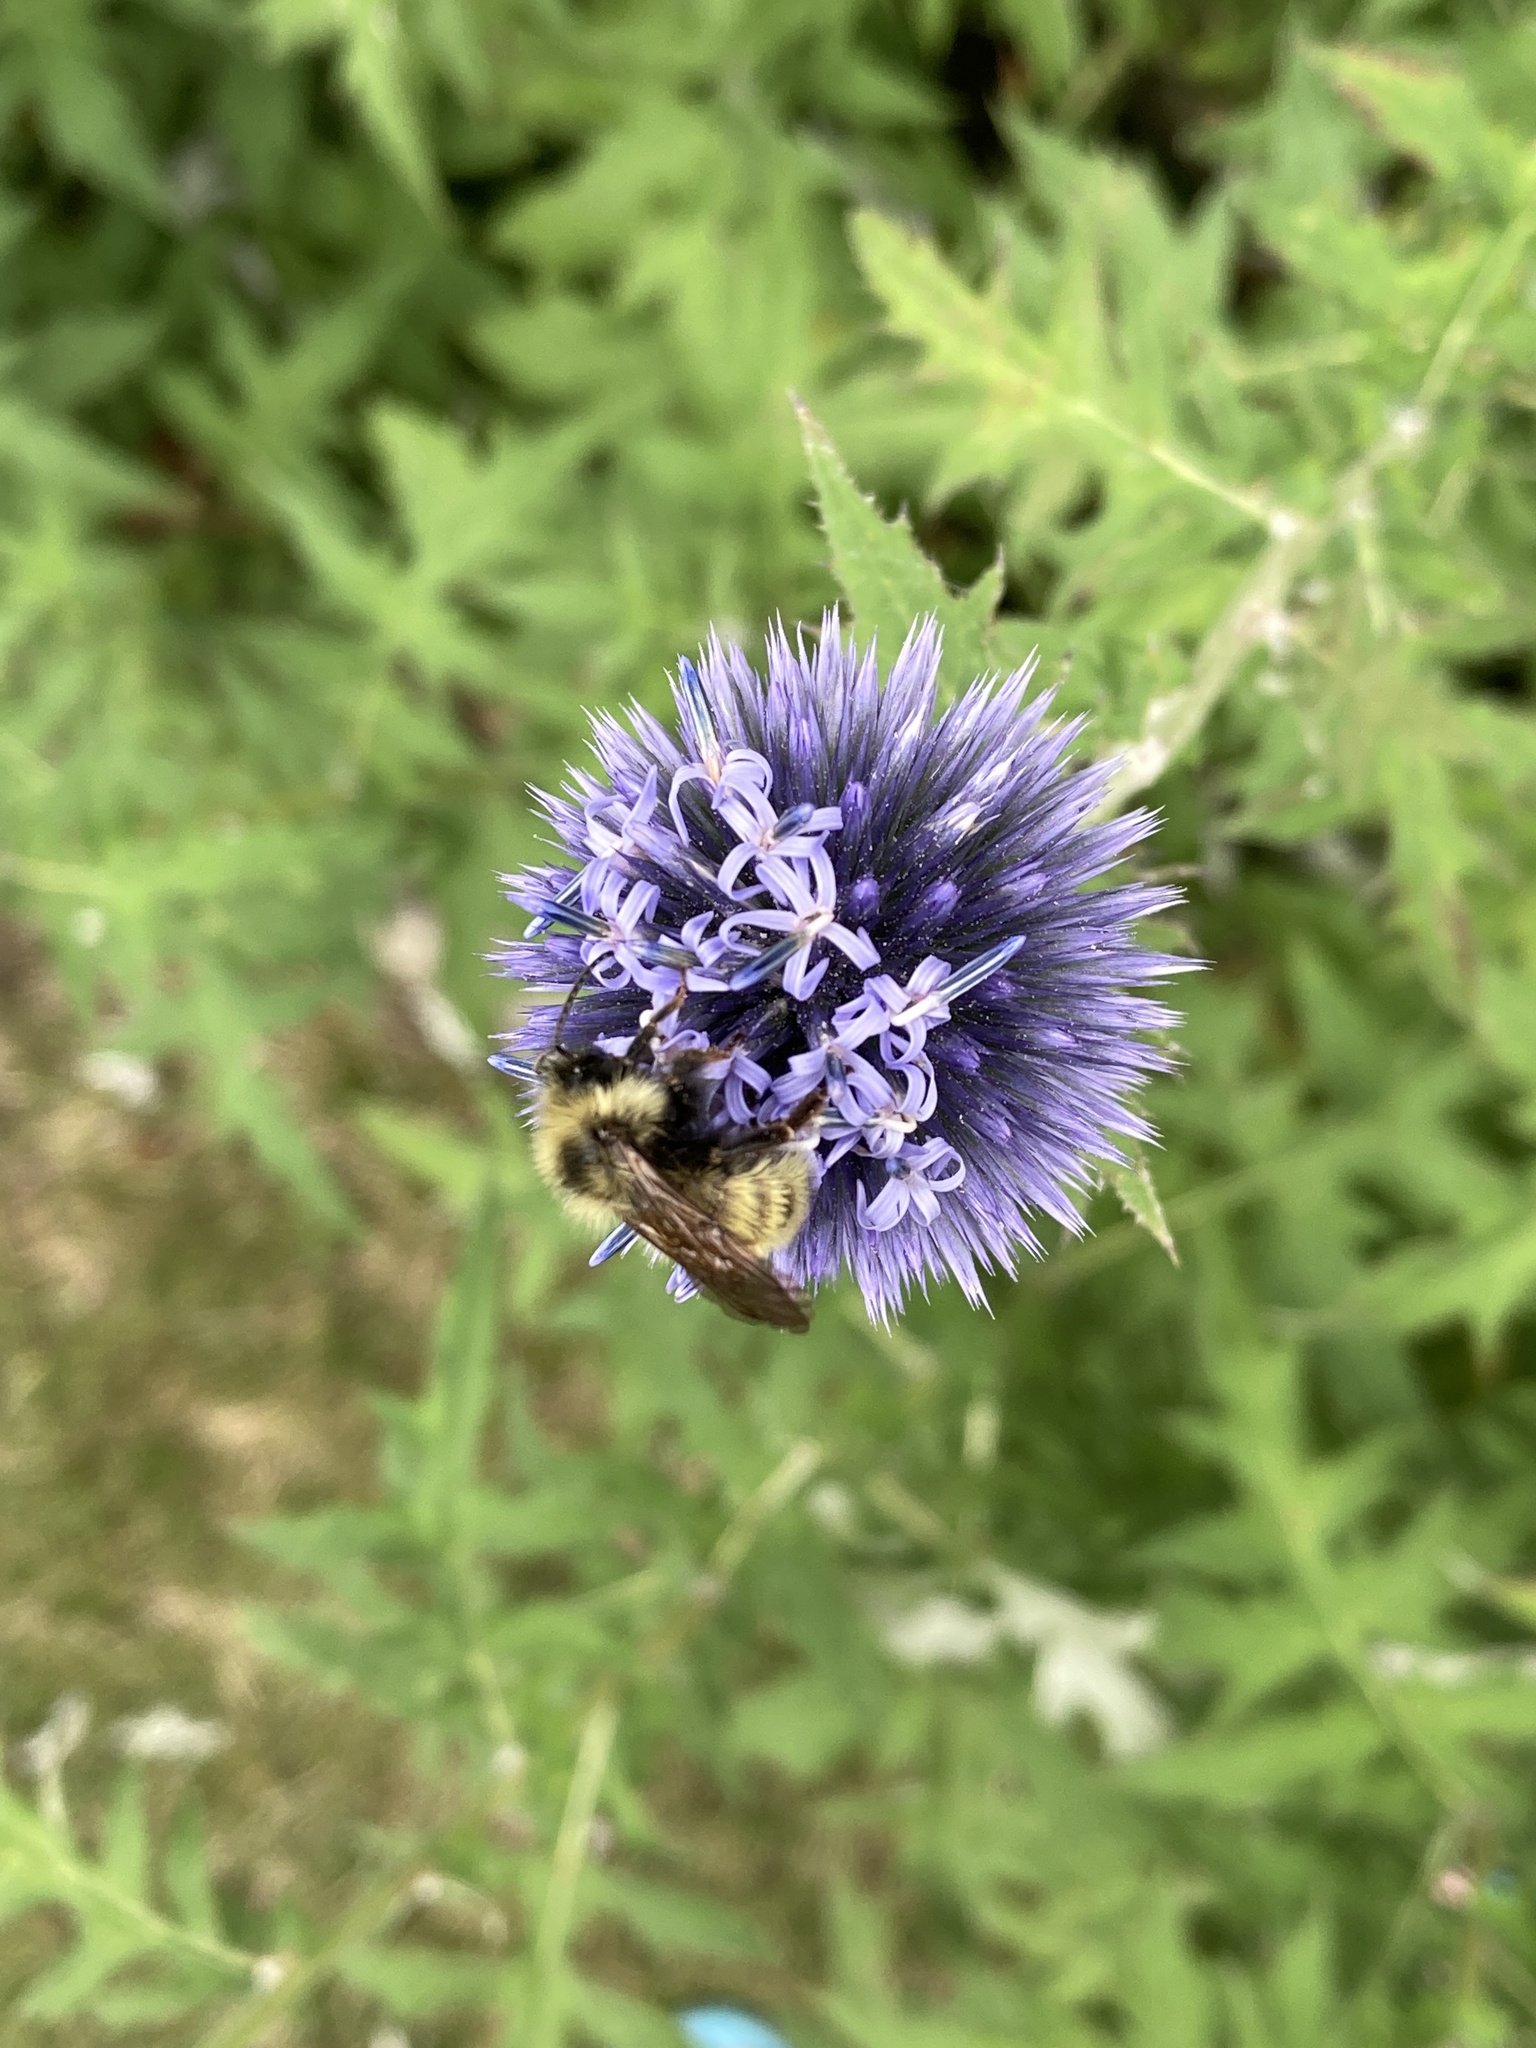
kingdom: Animalia
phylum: Arthropoda
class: Insecta
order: Hymenoptera
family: Apidae
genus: Bombus
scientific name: Bombus insularis
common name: Indiscriminate cuckoo bumble bee
